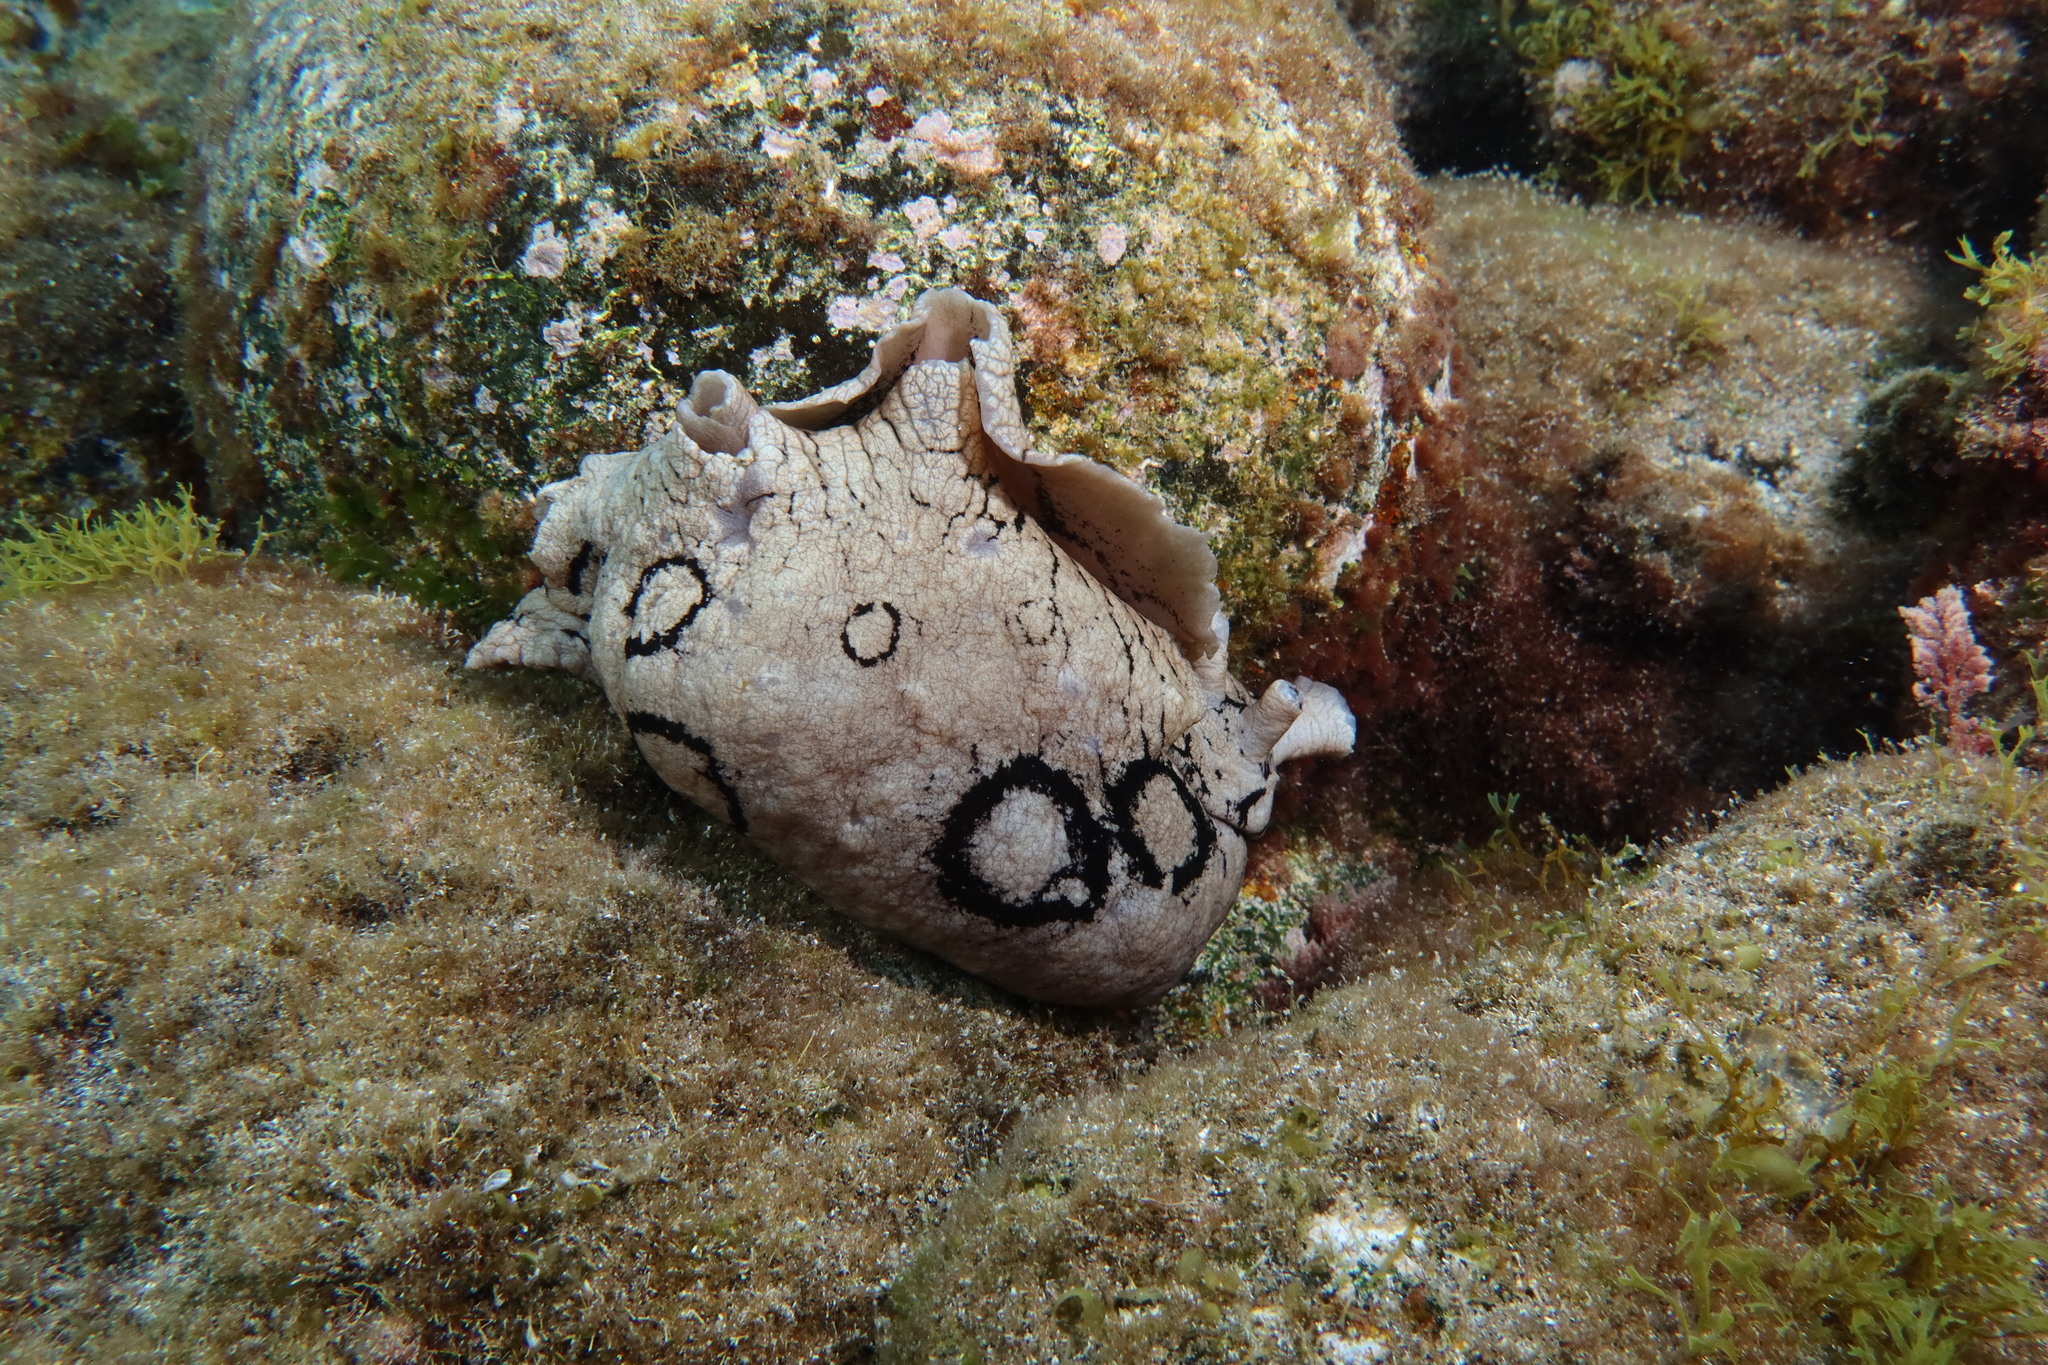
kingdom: Animalia
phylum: Mollusca
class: Gastropoda
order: Aplysiida
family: Aplysiidae
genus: Aplysia
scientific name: Aplysia dactylomela
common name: Large-spotted sea hare
